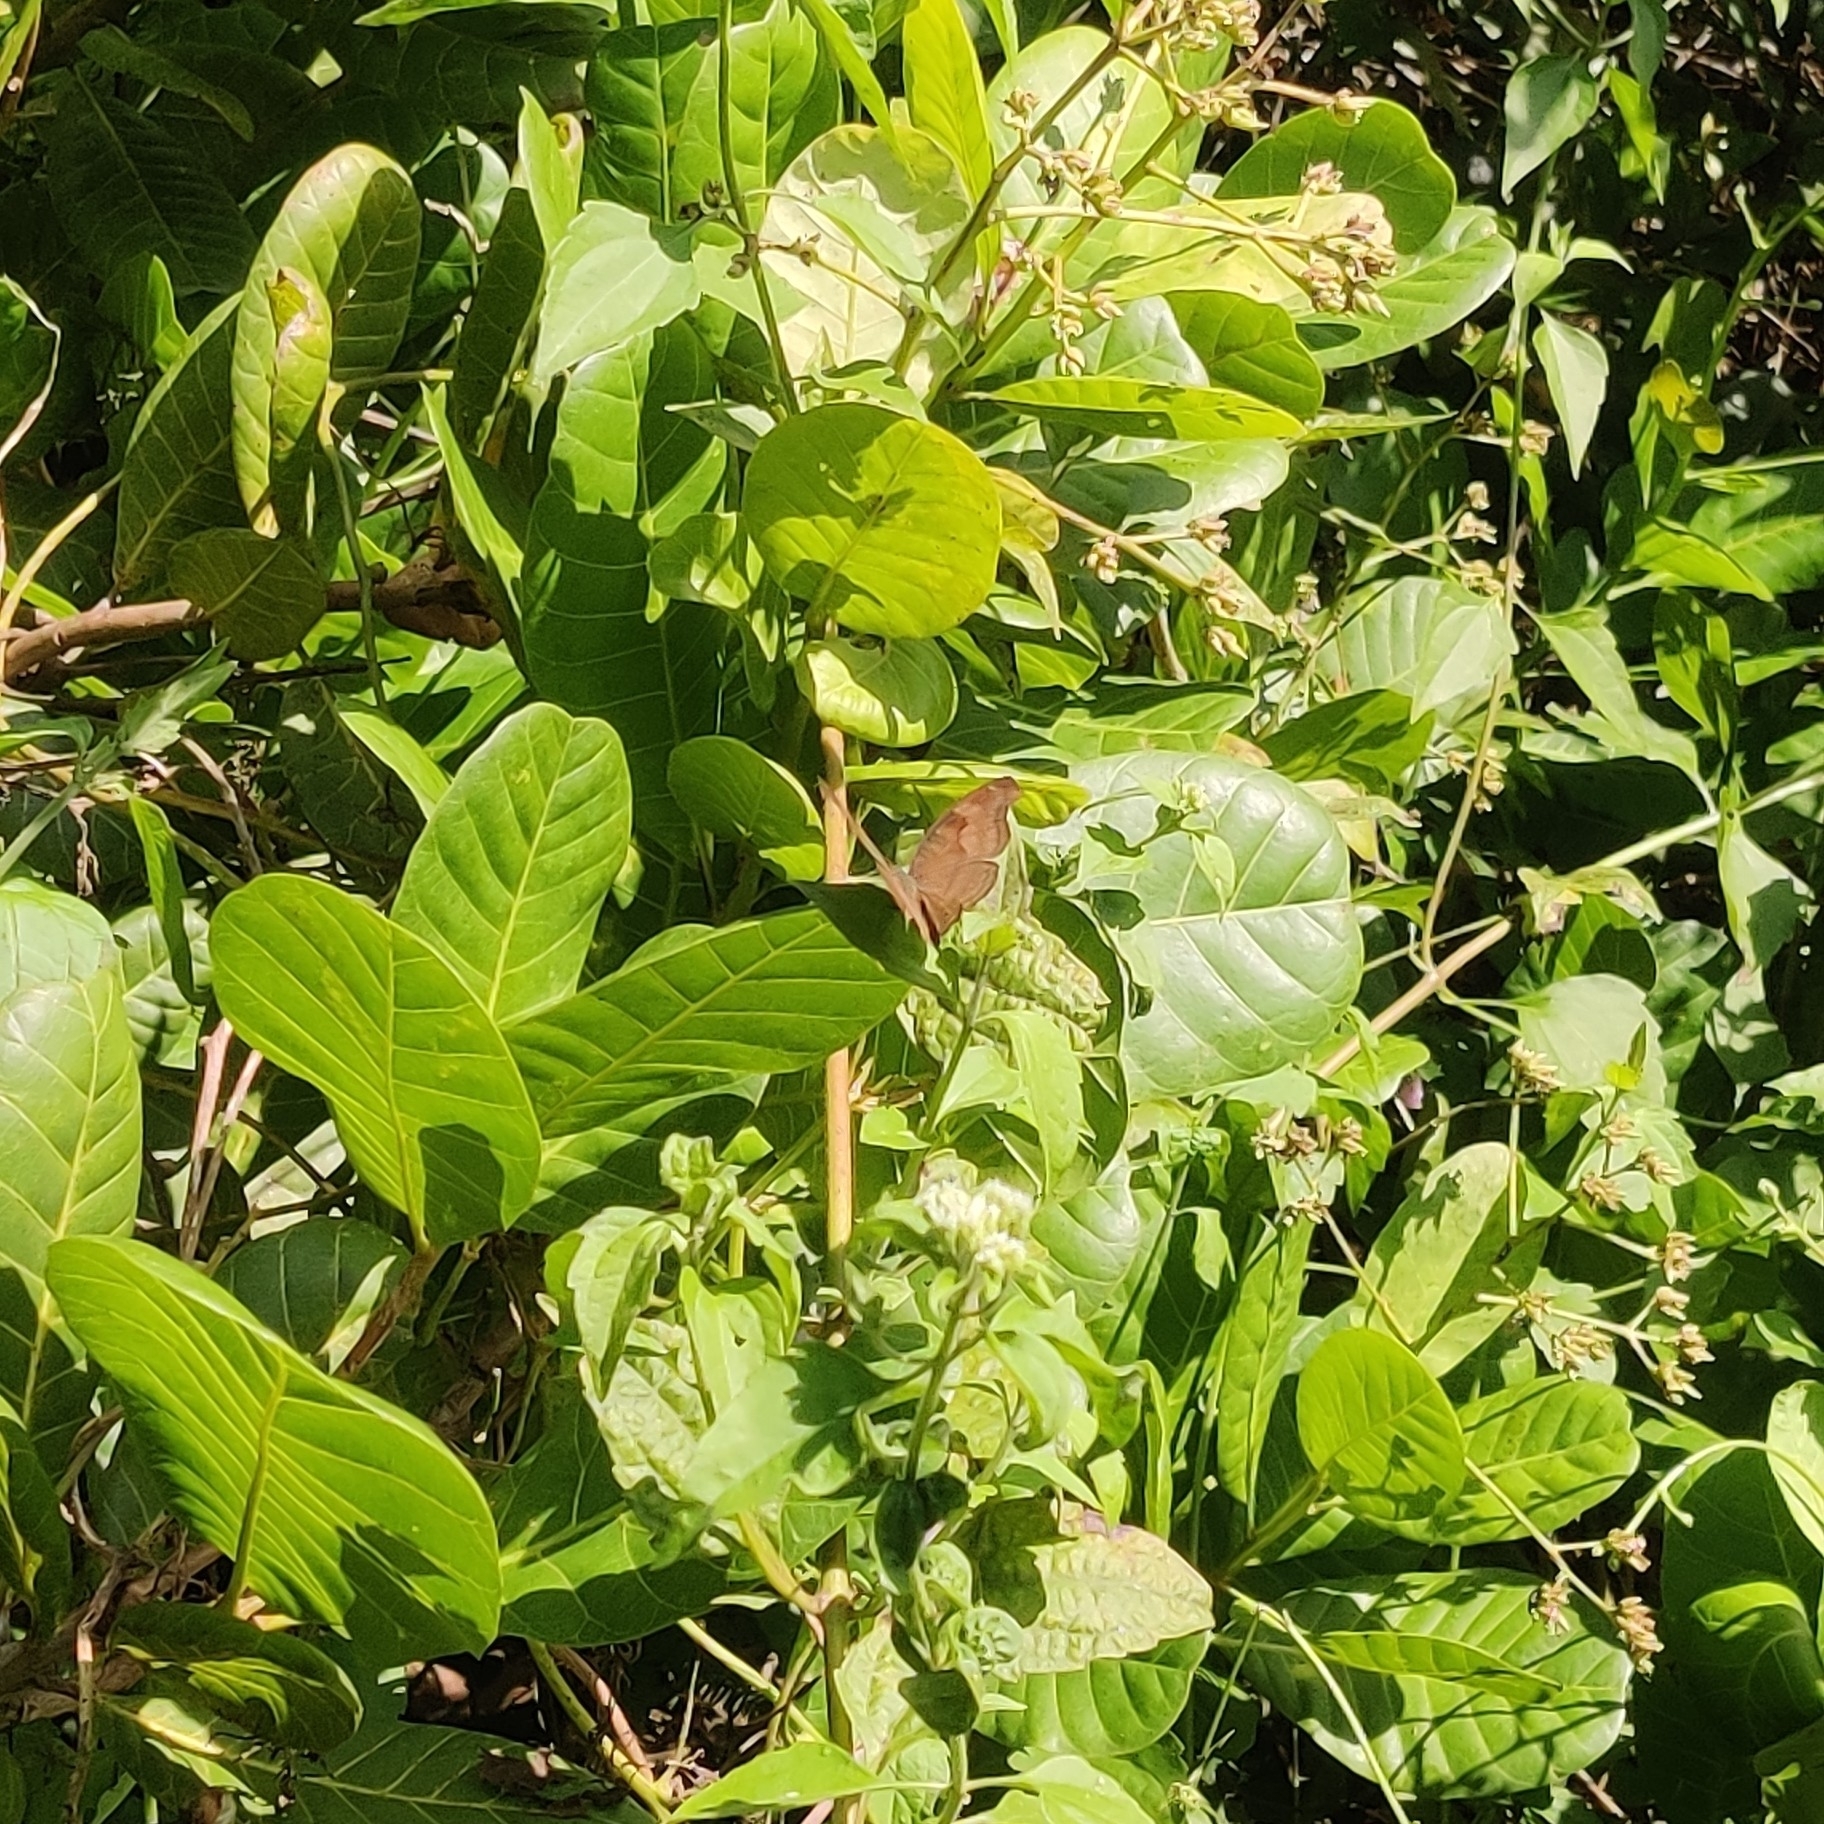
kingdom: Animalia
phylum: Arthropoda
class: Insecta
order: Lepidoptera
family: Nymphalidae
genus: Junonia
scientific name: Junonia iphita
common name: Chocolate pansy
